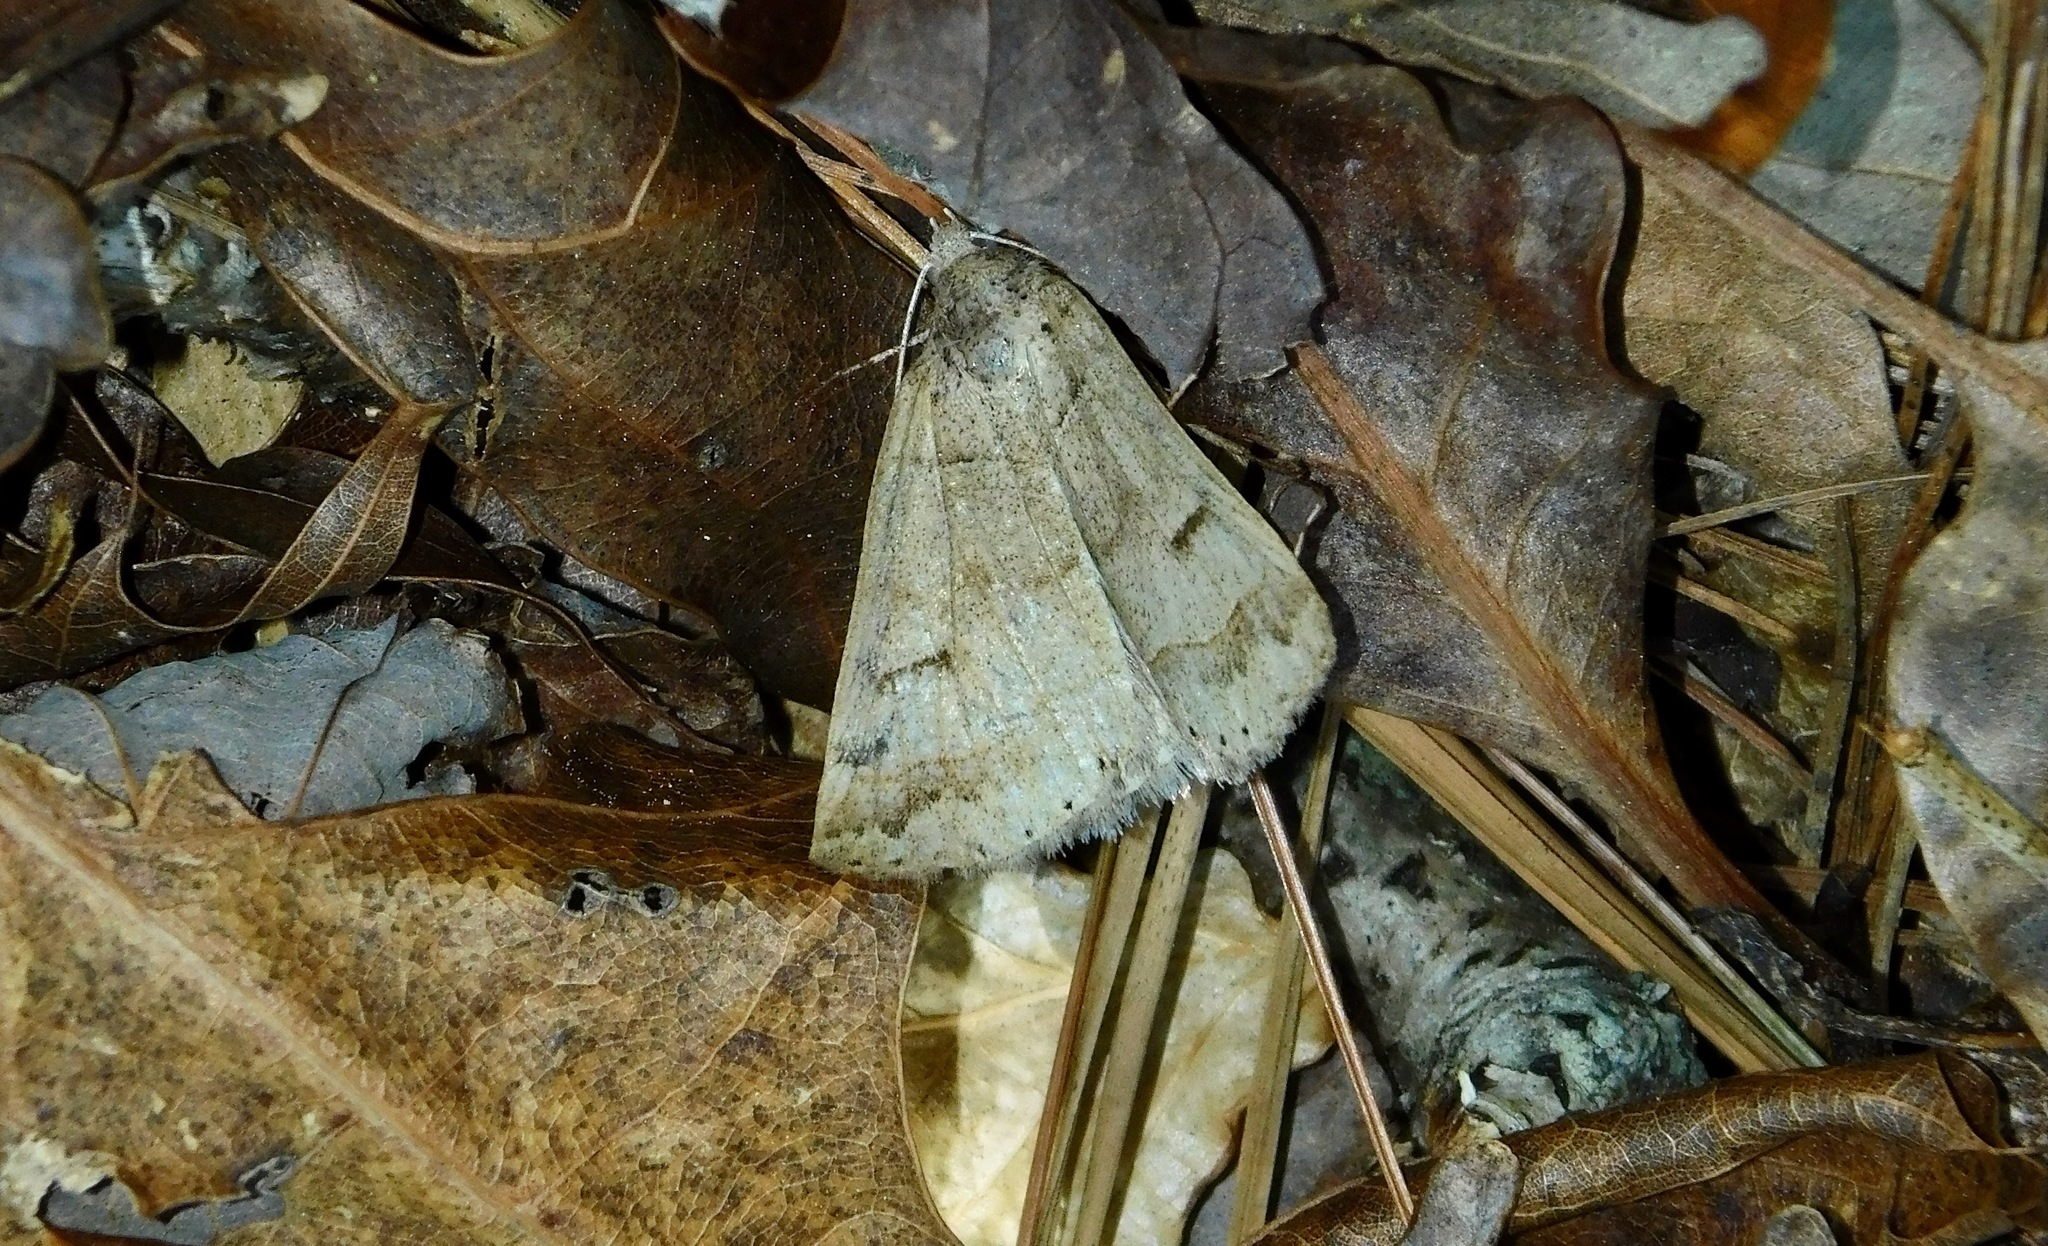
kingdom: Animalia
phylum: Arthropoda
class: Insecta
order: Lepidoptera
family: Erebidae
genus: Phoberia
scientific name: Phoberia atomaris
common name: Common oak moth
